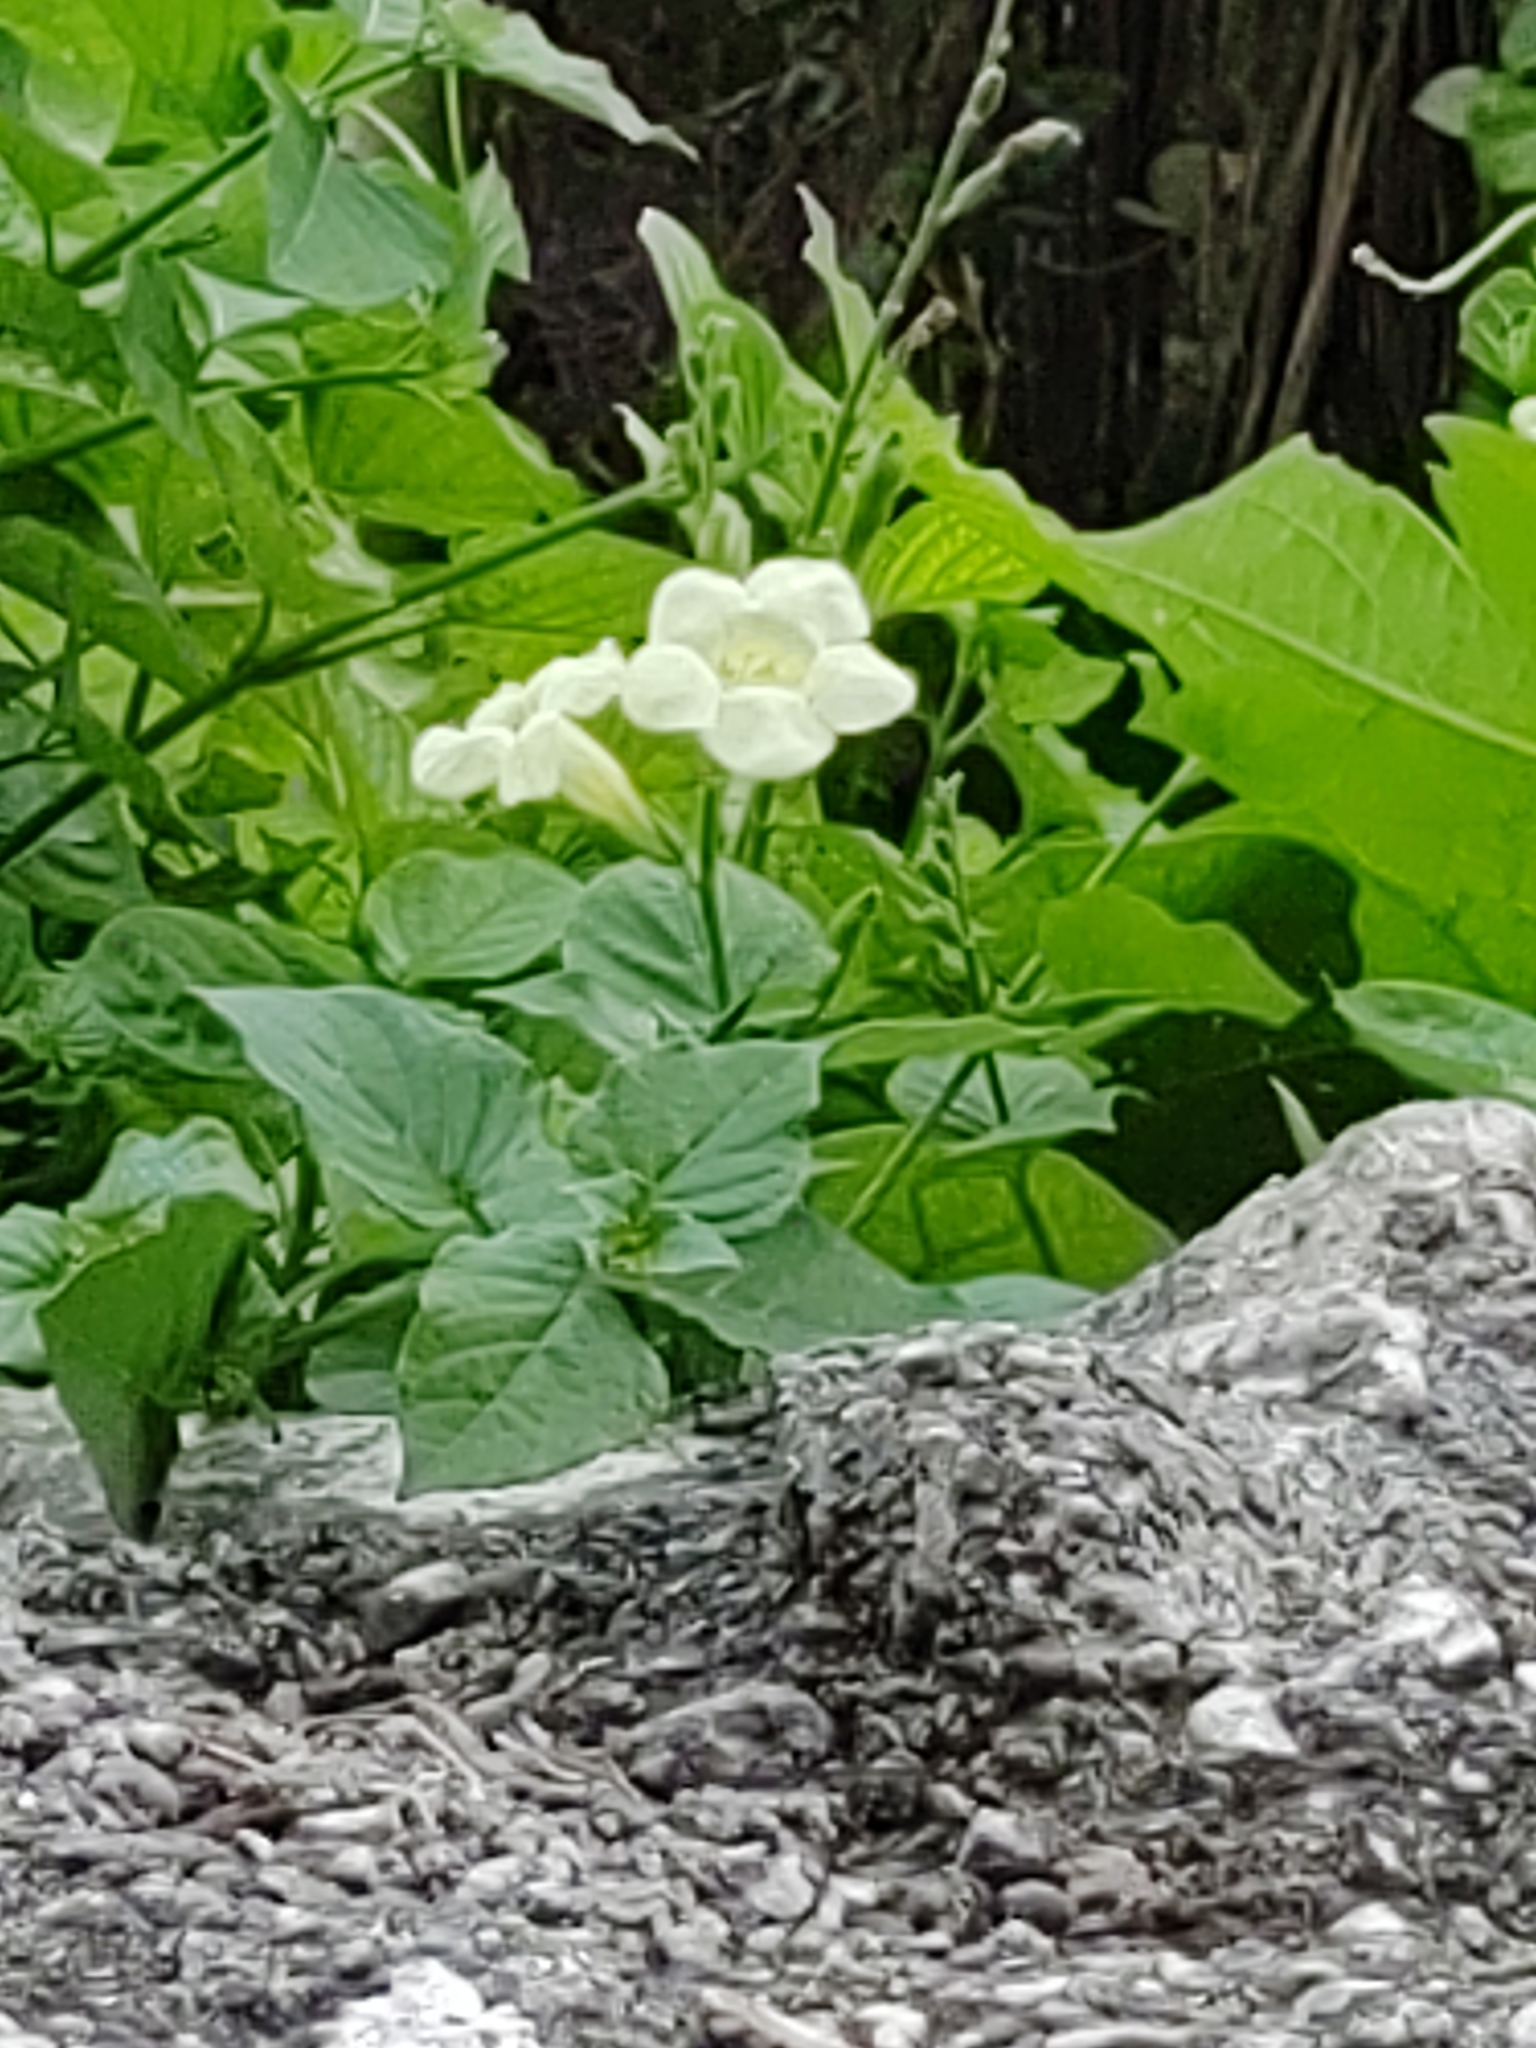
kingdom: Plantae
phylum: Tracheophyta
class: Magnoliopsida
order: Lamiales
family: Acanthaceae
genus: Asystasia
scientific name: Asystasia gangetica
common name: Chinese violet
